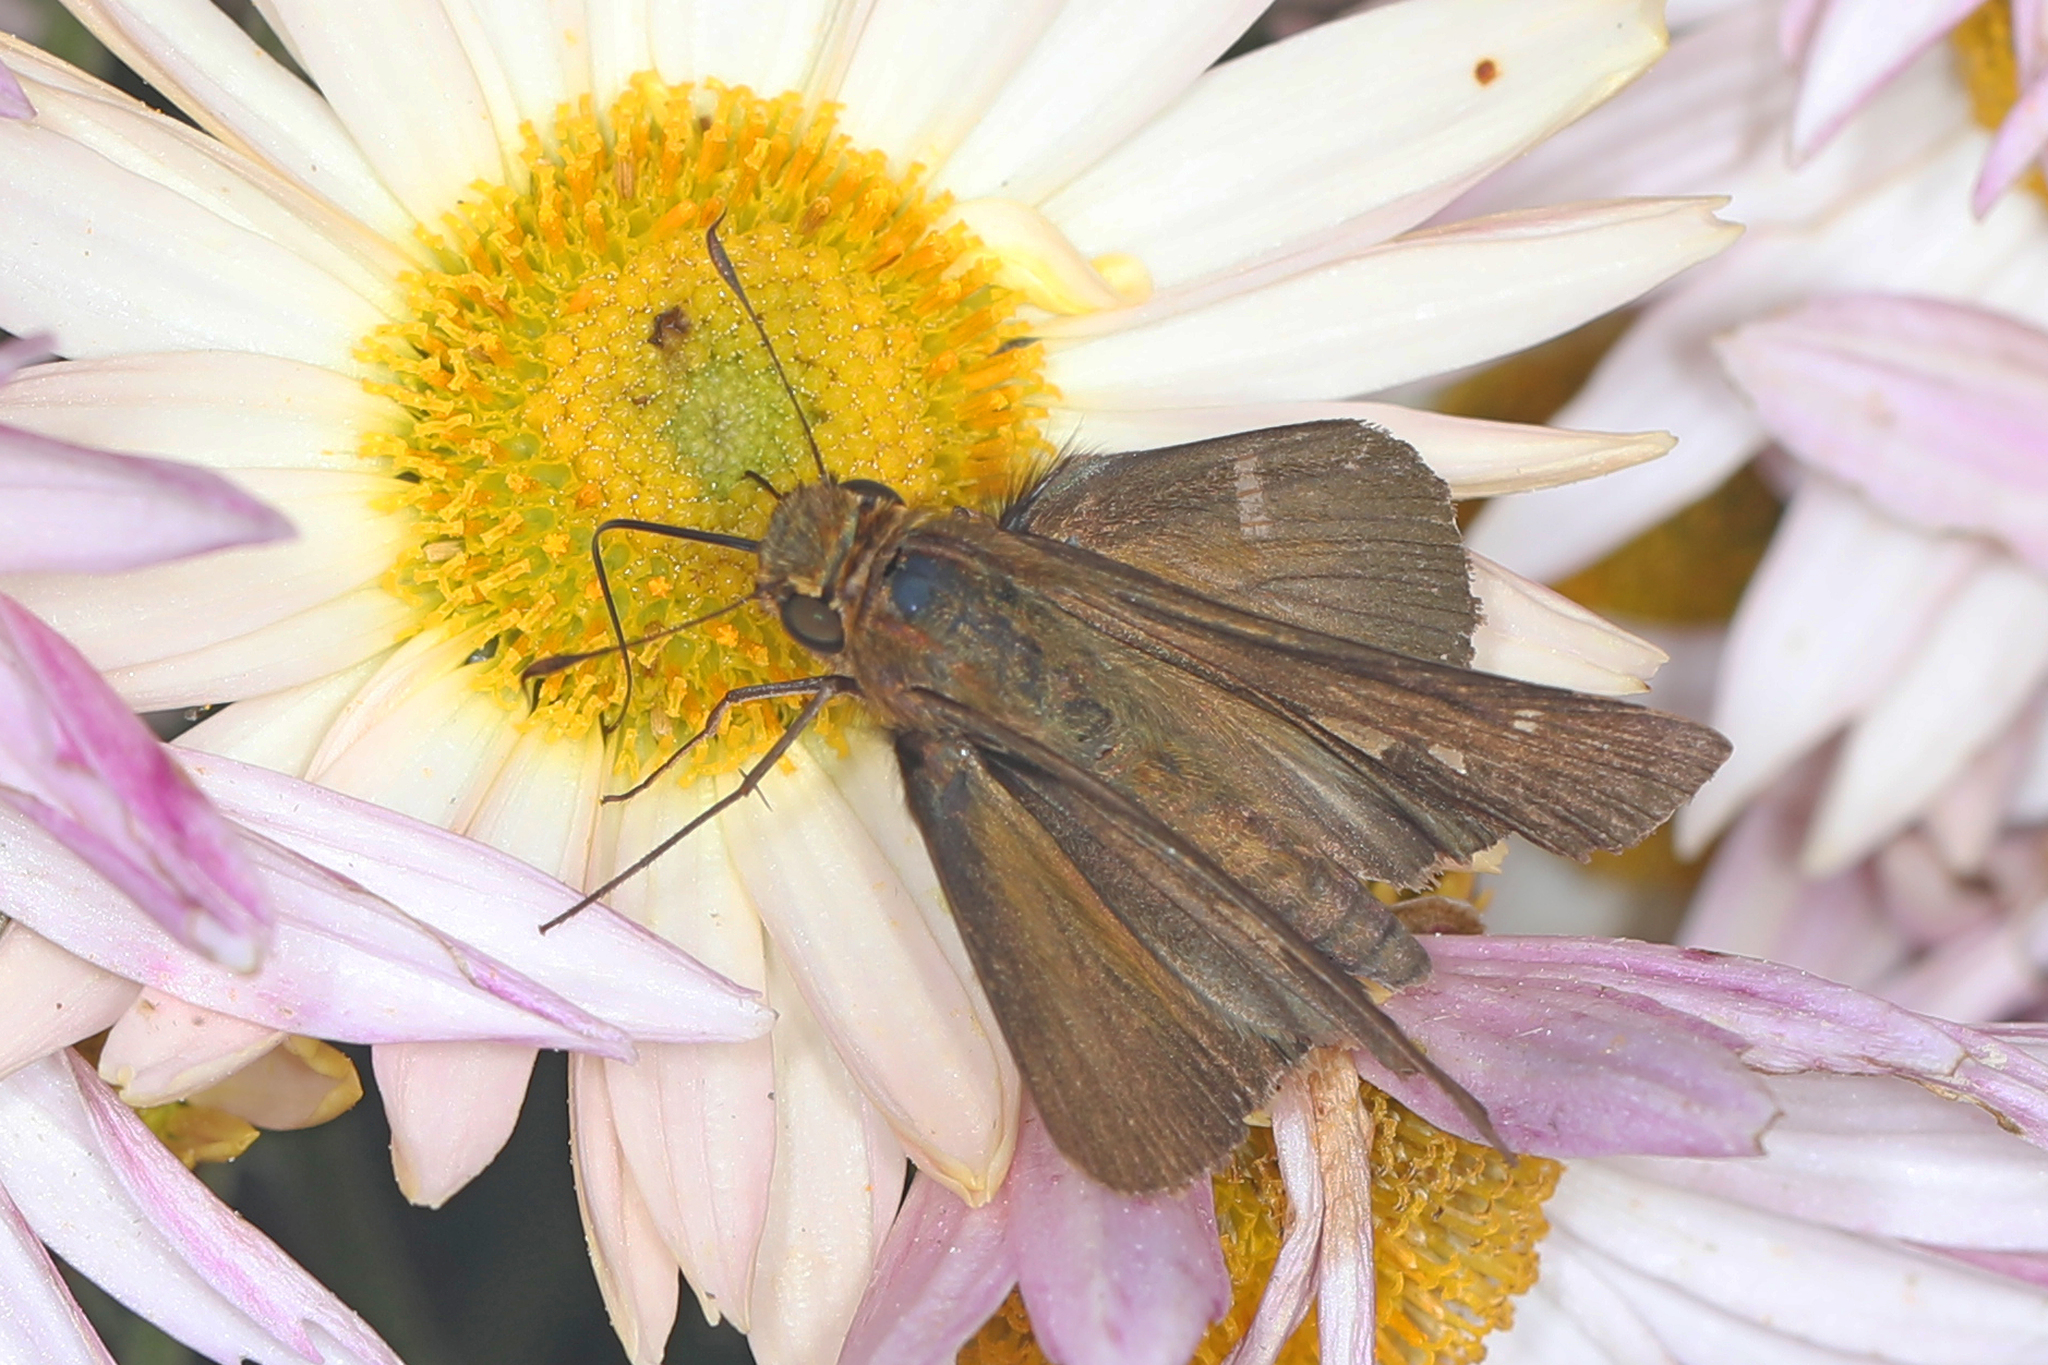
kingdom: Animalia
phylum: Arthropoda
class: Insecta
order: Lepidoptera
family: Hesperiidae
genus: Panoquina
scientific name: Panoquina ocola
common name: Ocola skipper
